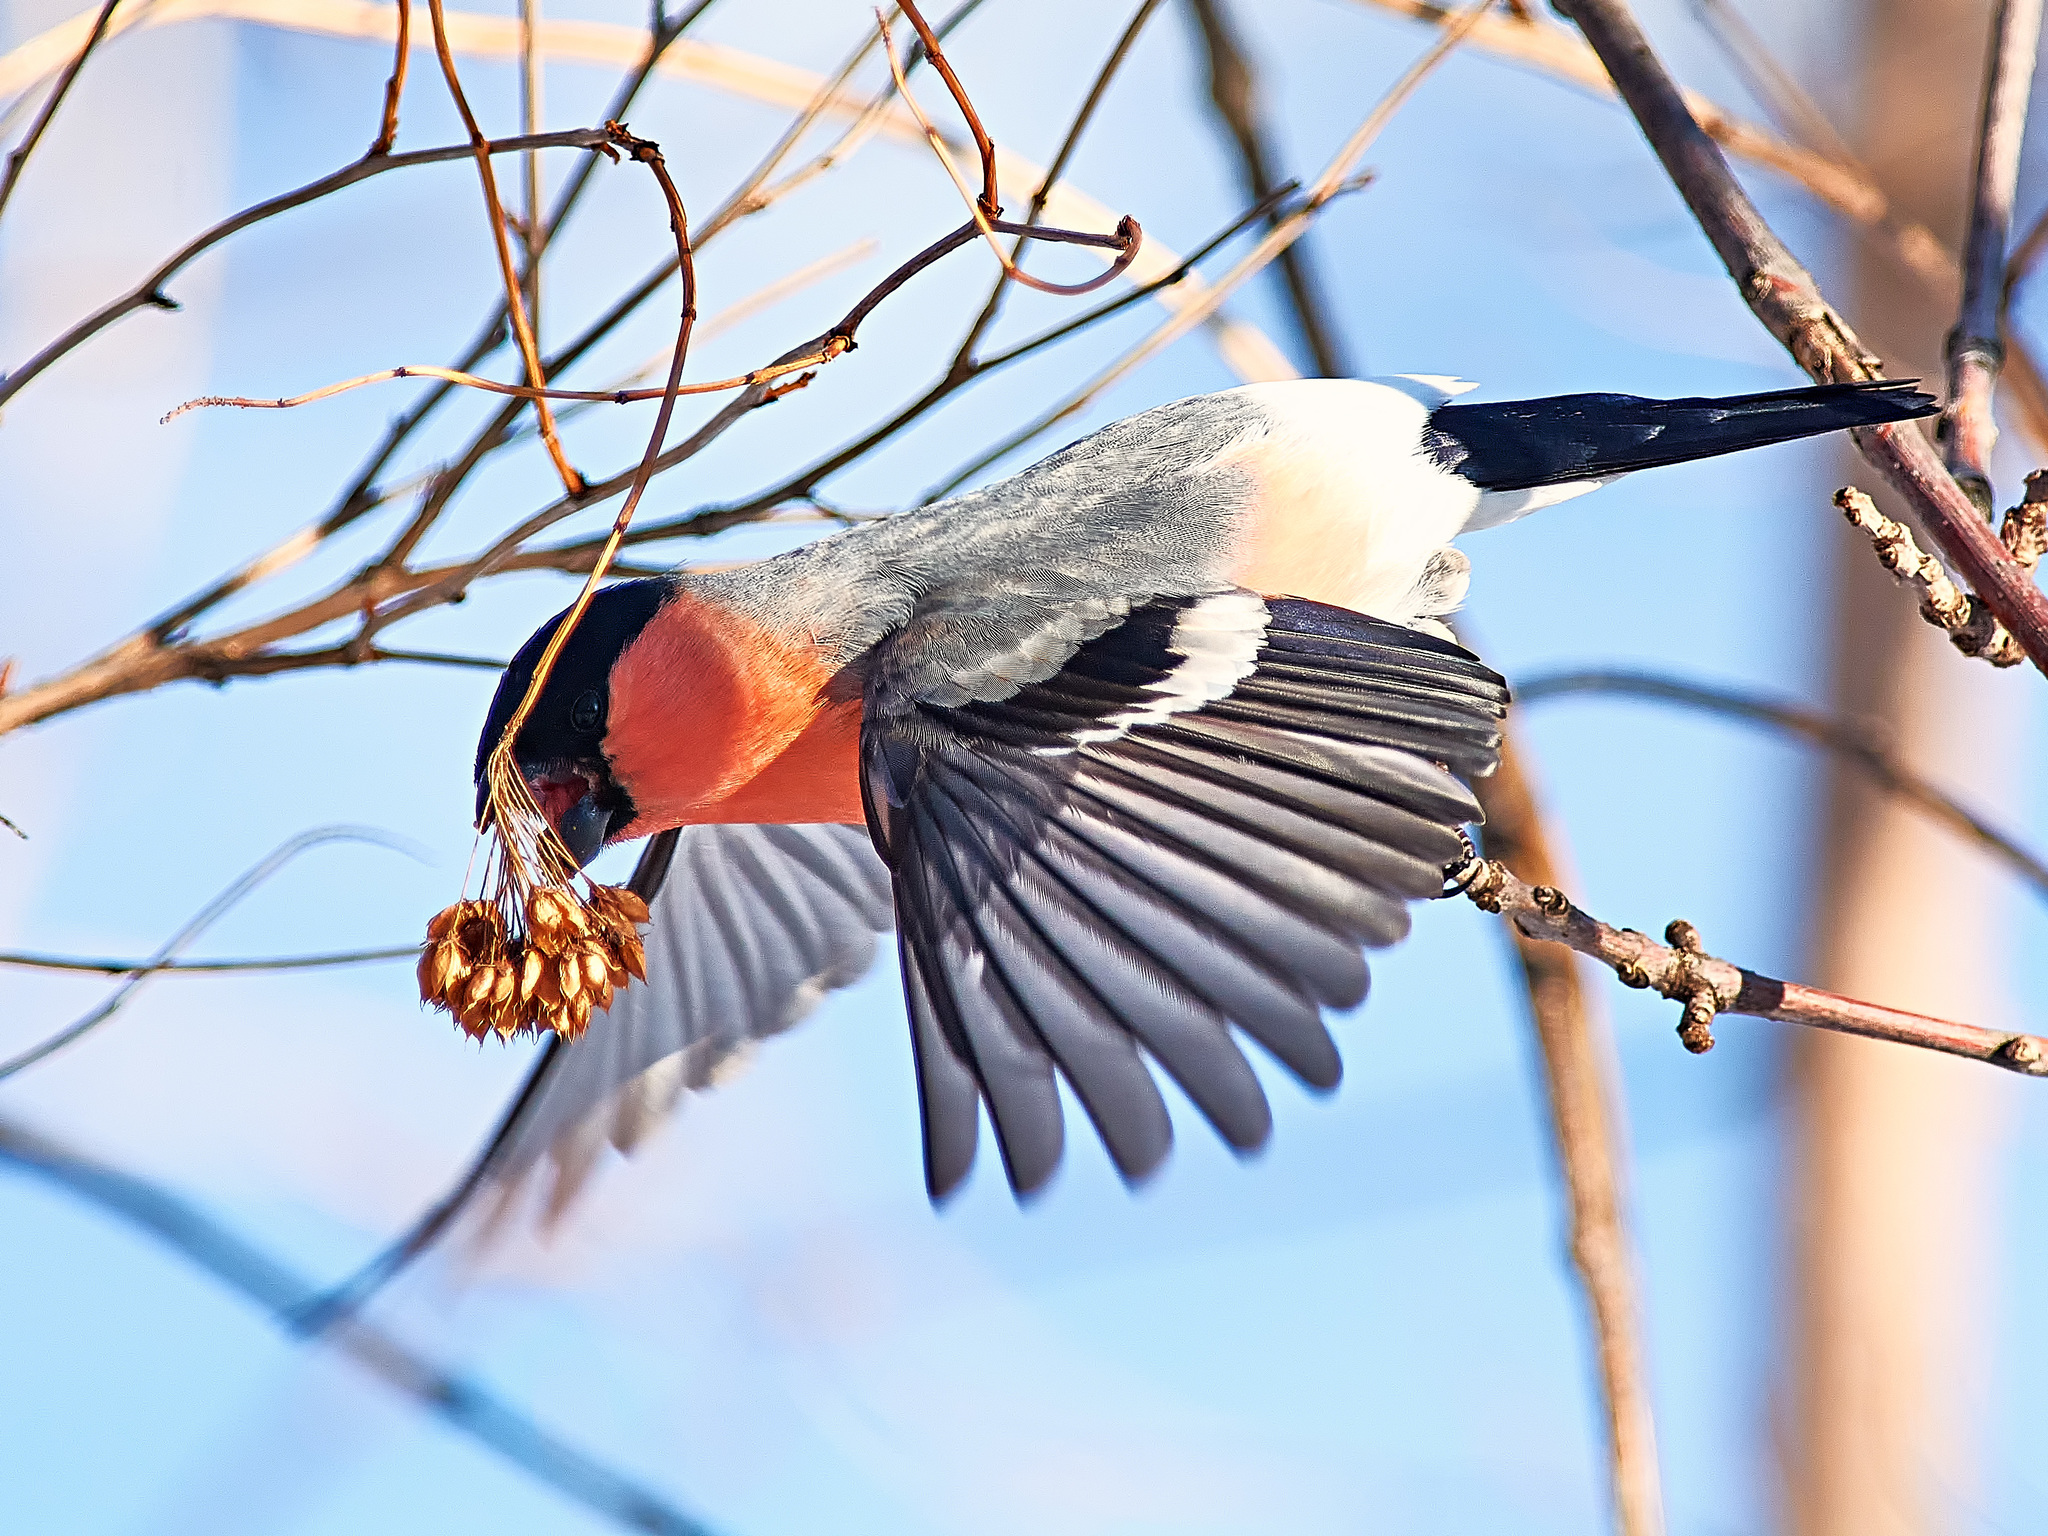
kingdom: Animalia
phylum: Chordata
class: Aves
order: Passeriformes
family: Fringillidae
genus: Pyrrhula
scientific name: Pyrrhula pyrrhula
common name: Eurasian bullfinch
